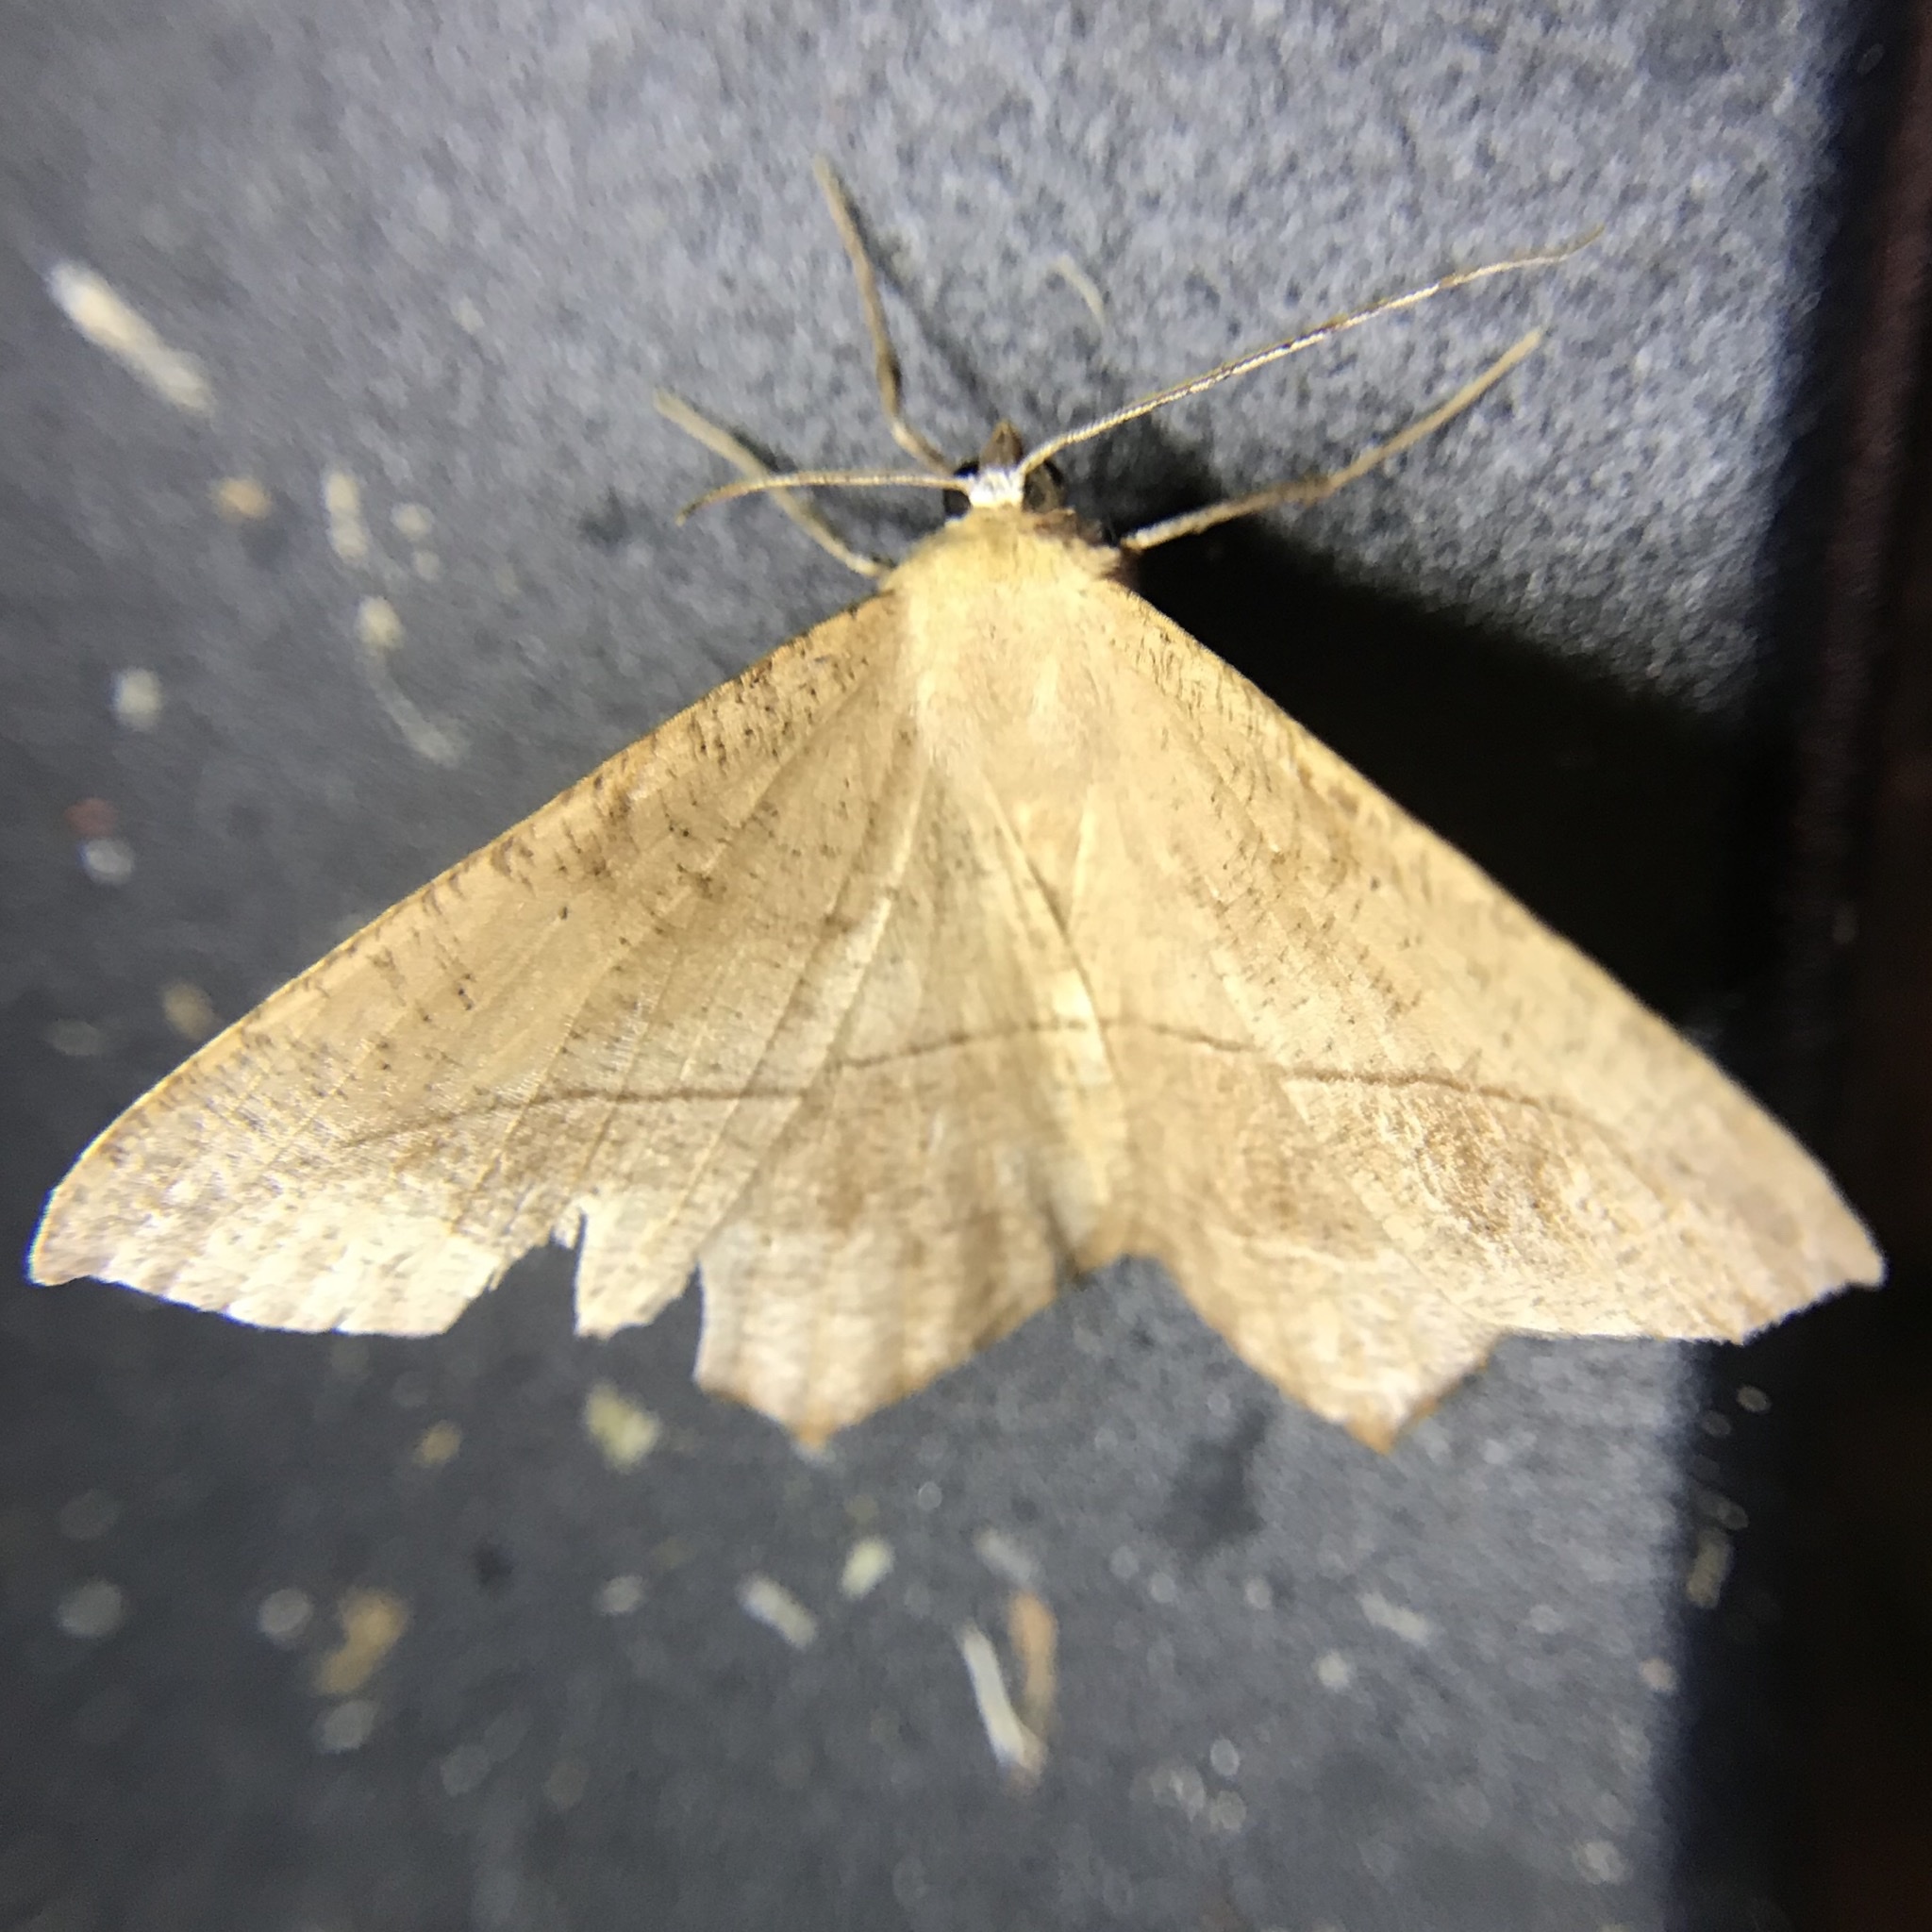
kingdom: Animalia
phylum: Arthropoda
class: Insecta
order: Lepidoptera
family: Geometridae
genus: Prochoerodes
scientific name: Prochoerodes lineola
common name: Large maple spanworm
